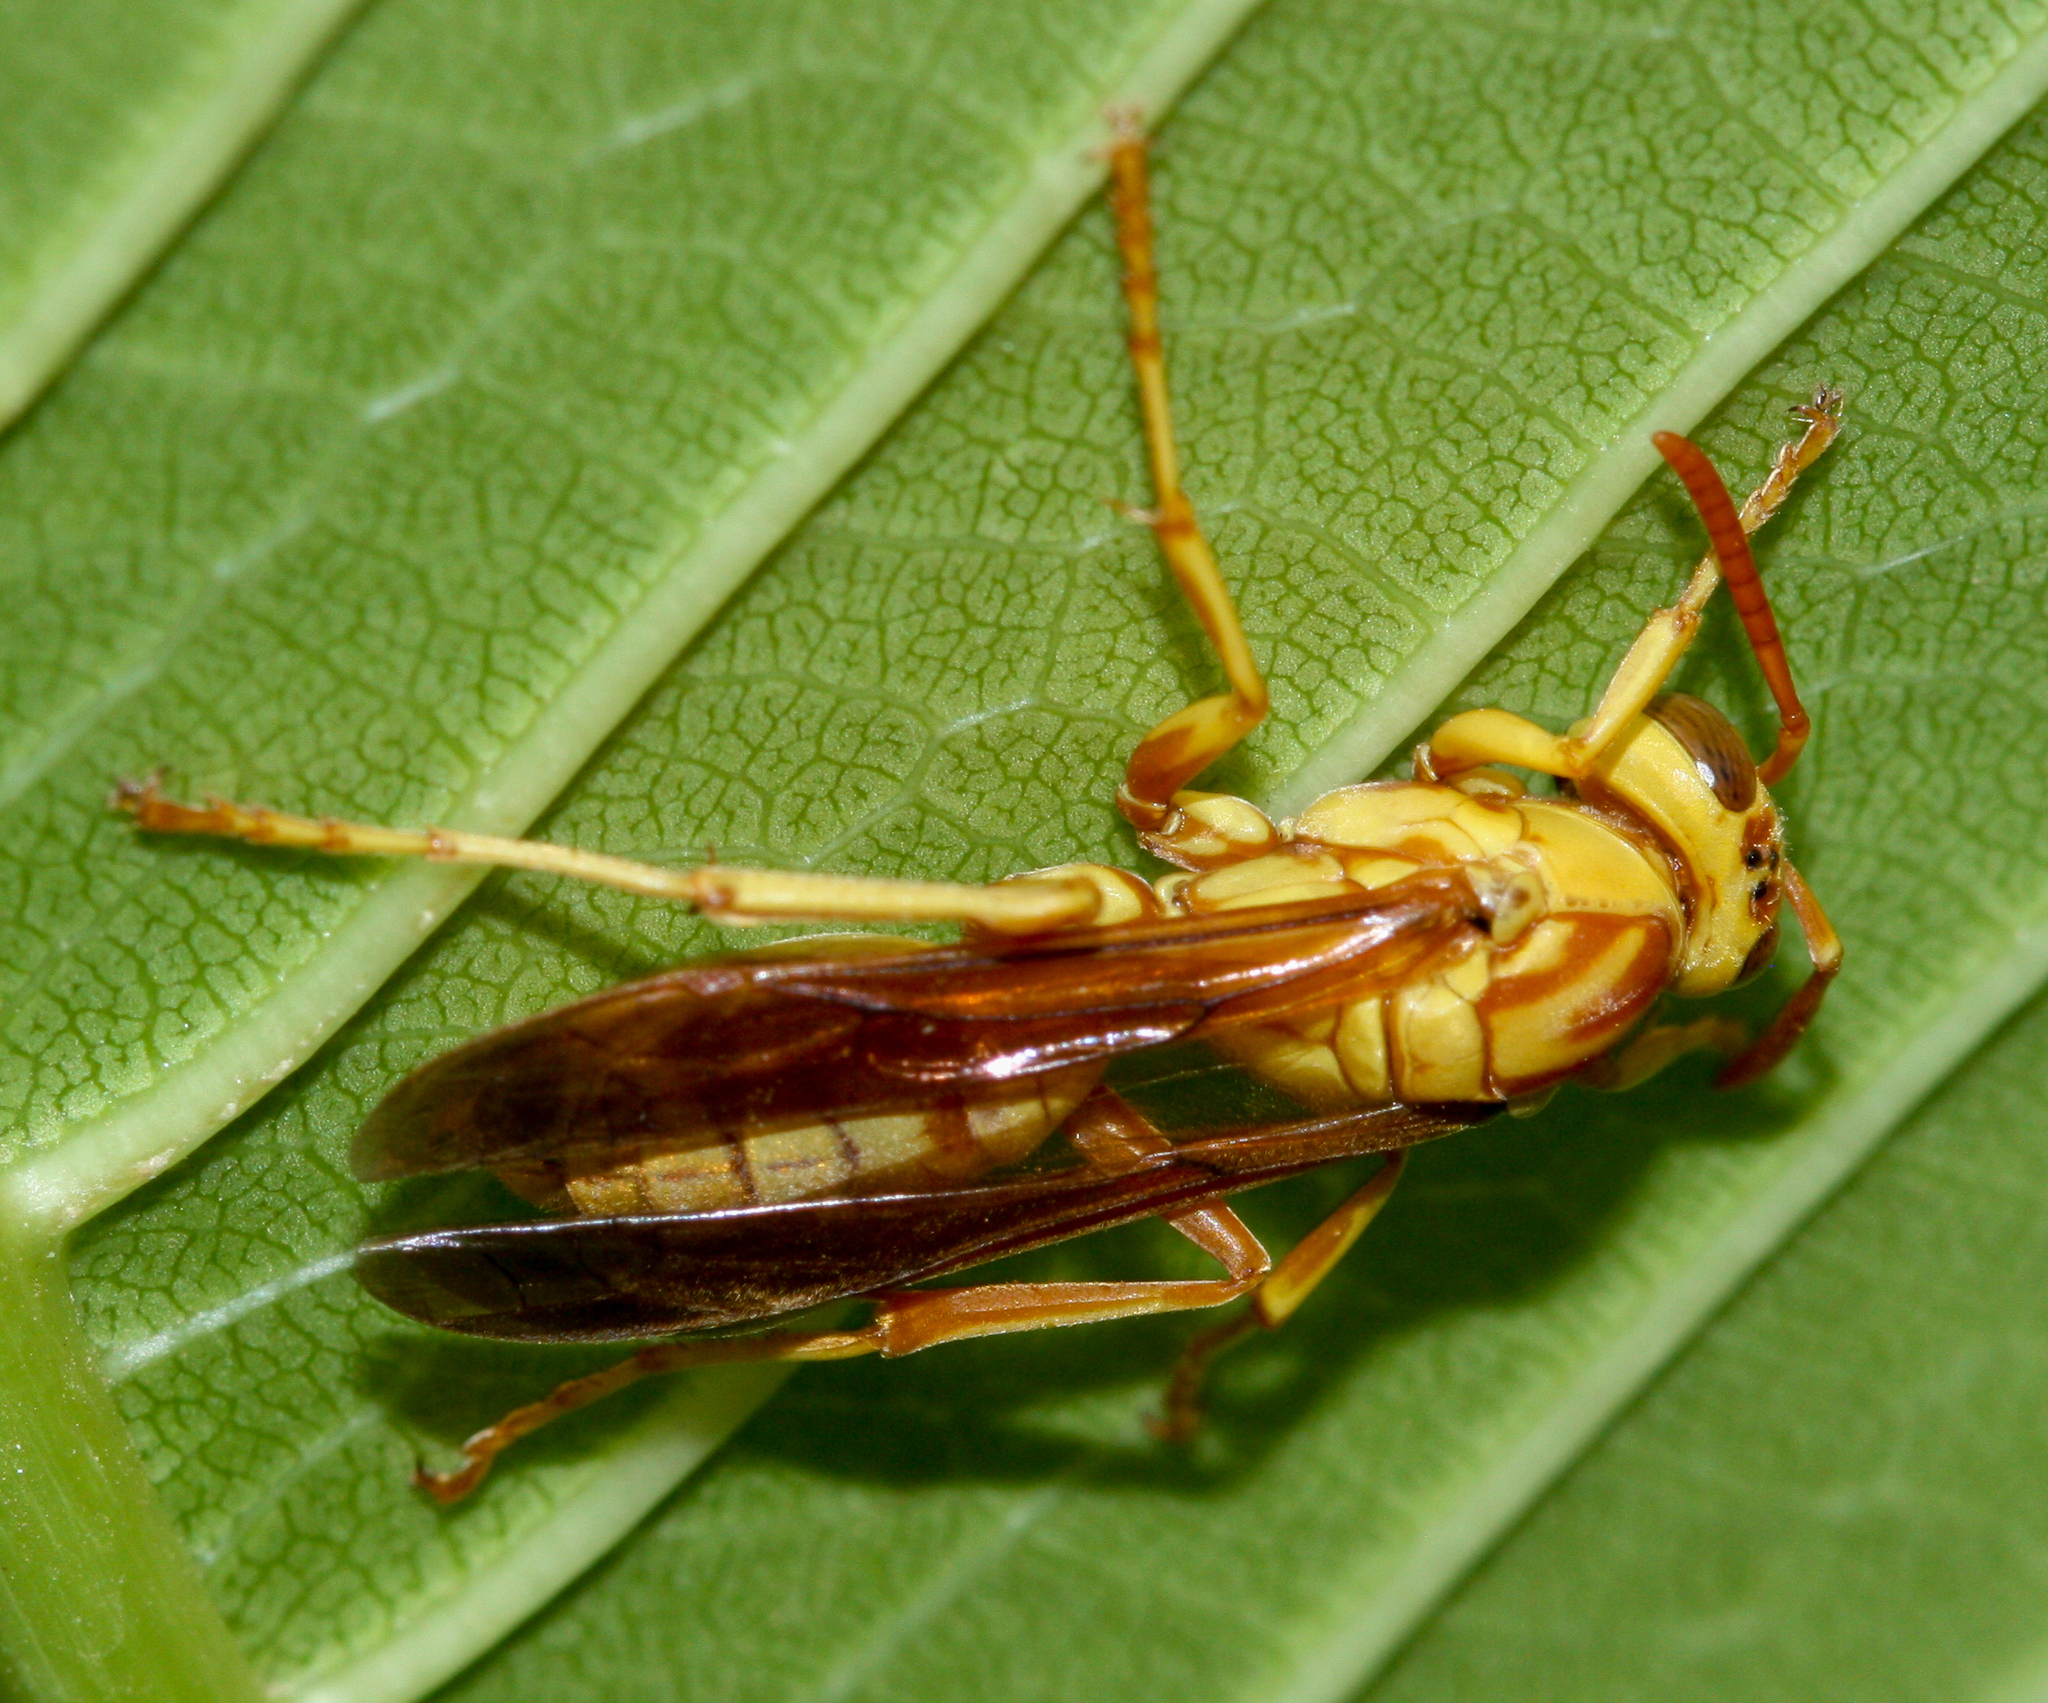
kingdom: Animalia
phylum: Arthropoda
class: Insecta
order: Hymenoptera
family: Eumenidae
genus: Polistes
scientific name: Polistes aurifer
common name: Paper wasp
